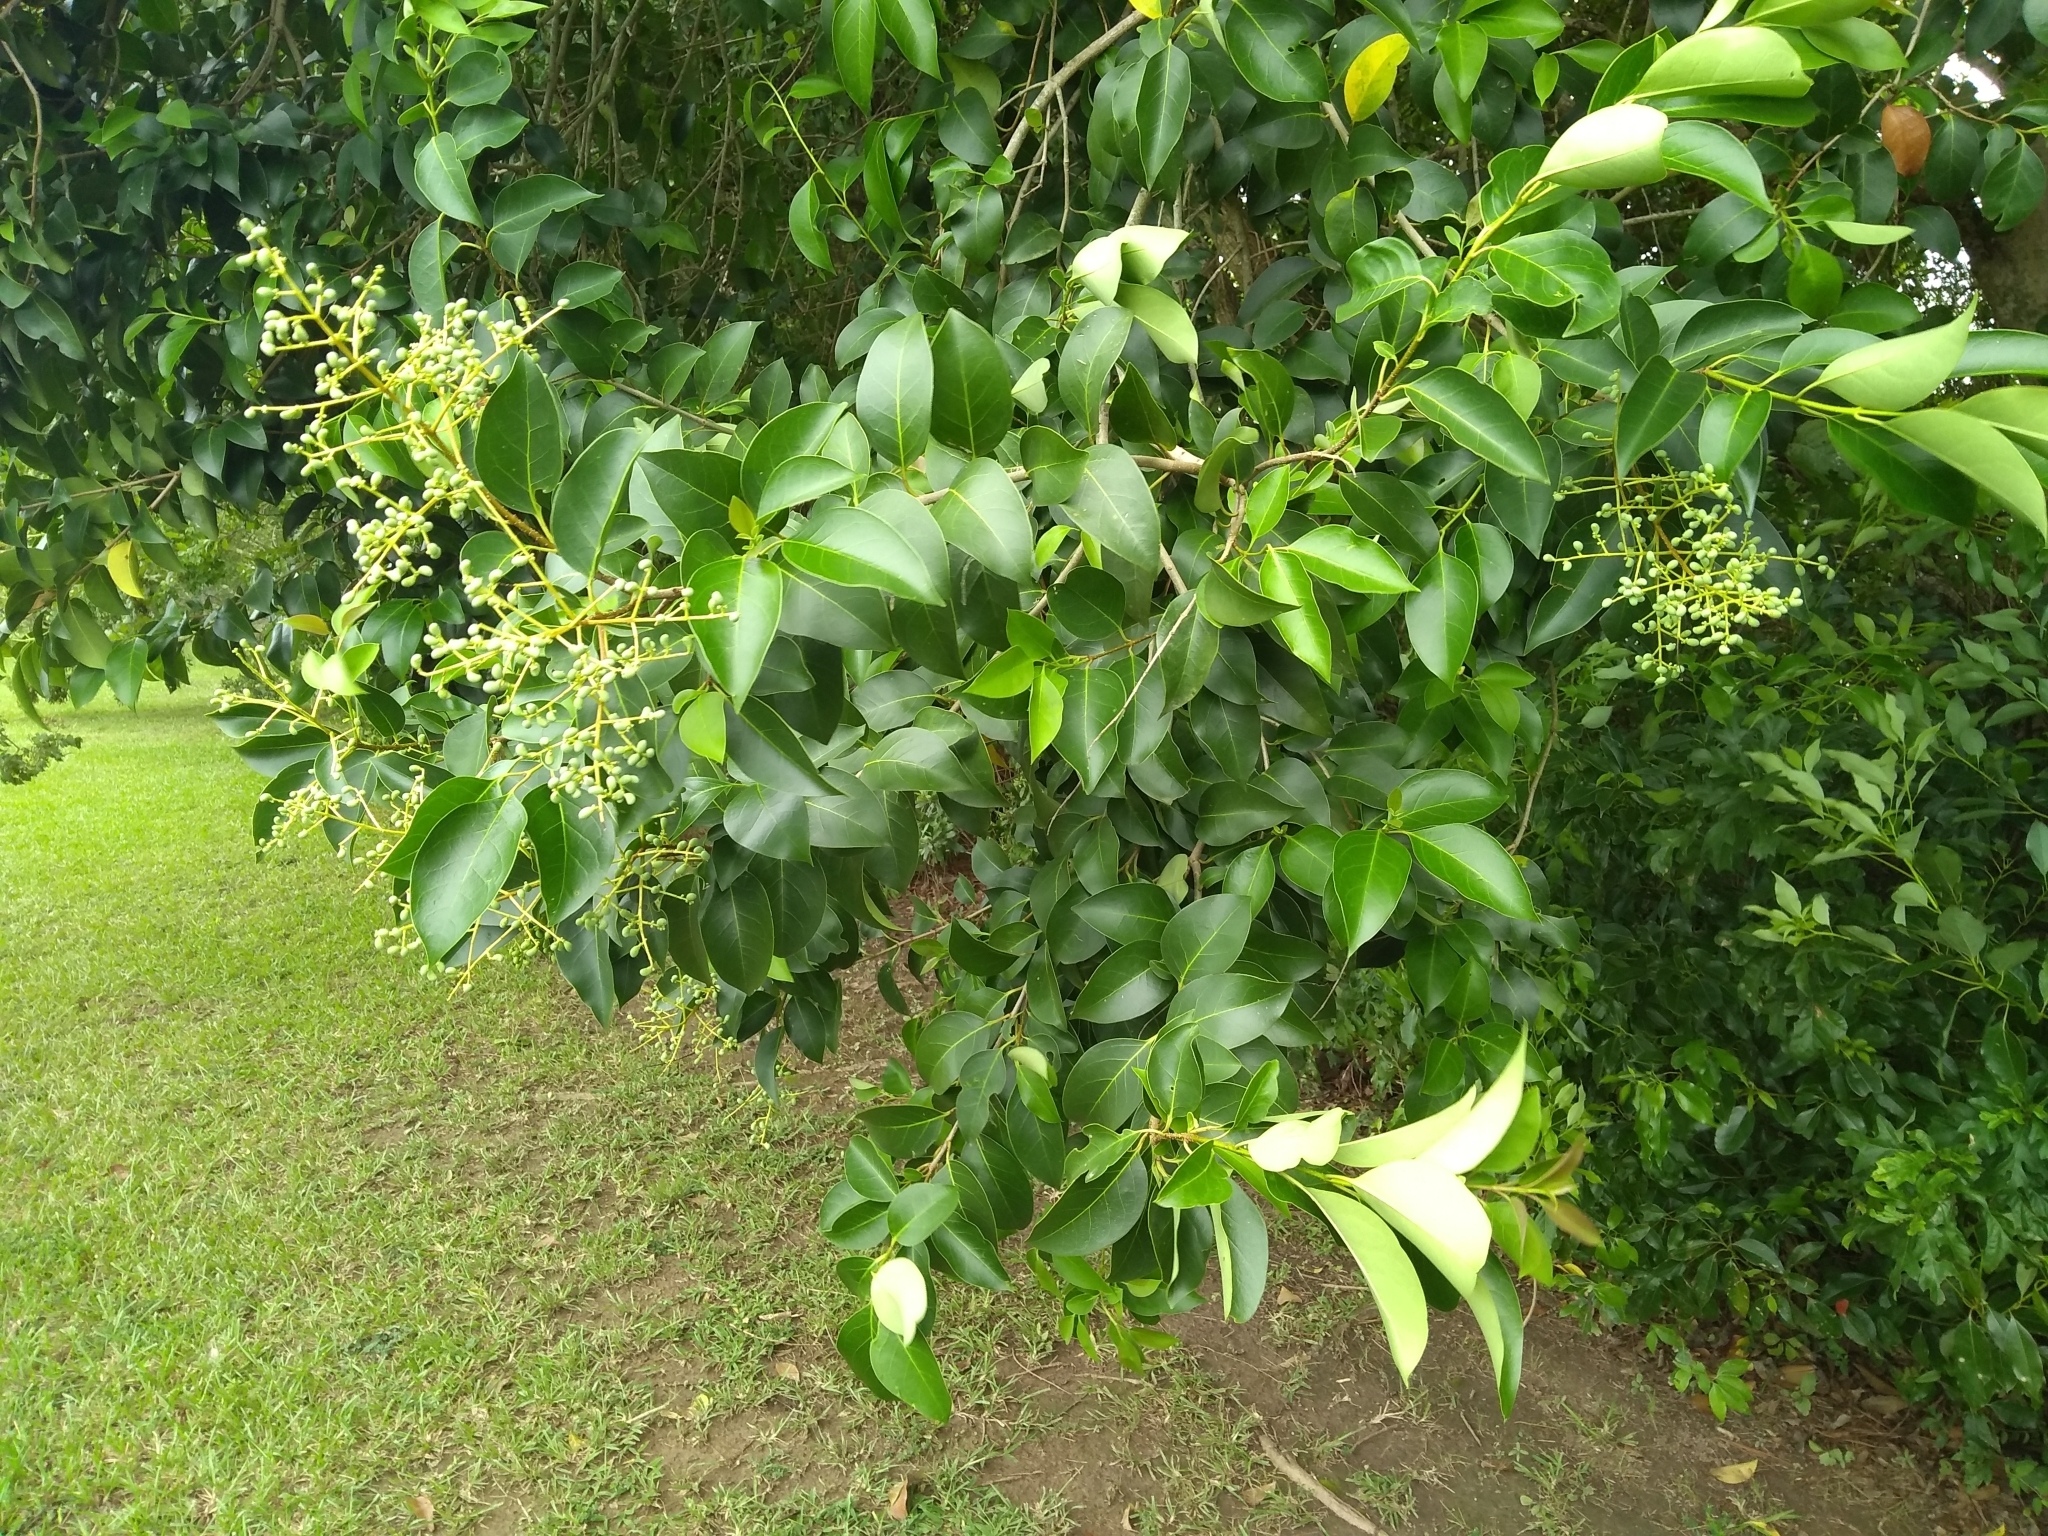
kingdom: Plantae
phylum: Tracheophyta
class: Magnoliopsida
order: Lamiales
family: Oleaceae
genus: Ligustrum
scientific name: Ligustrum lucidum
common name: Glossy privet
